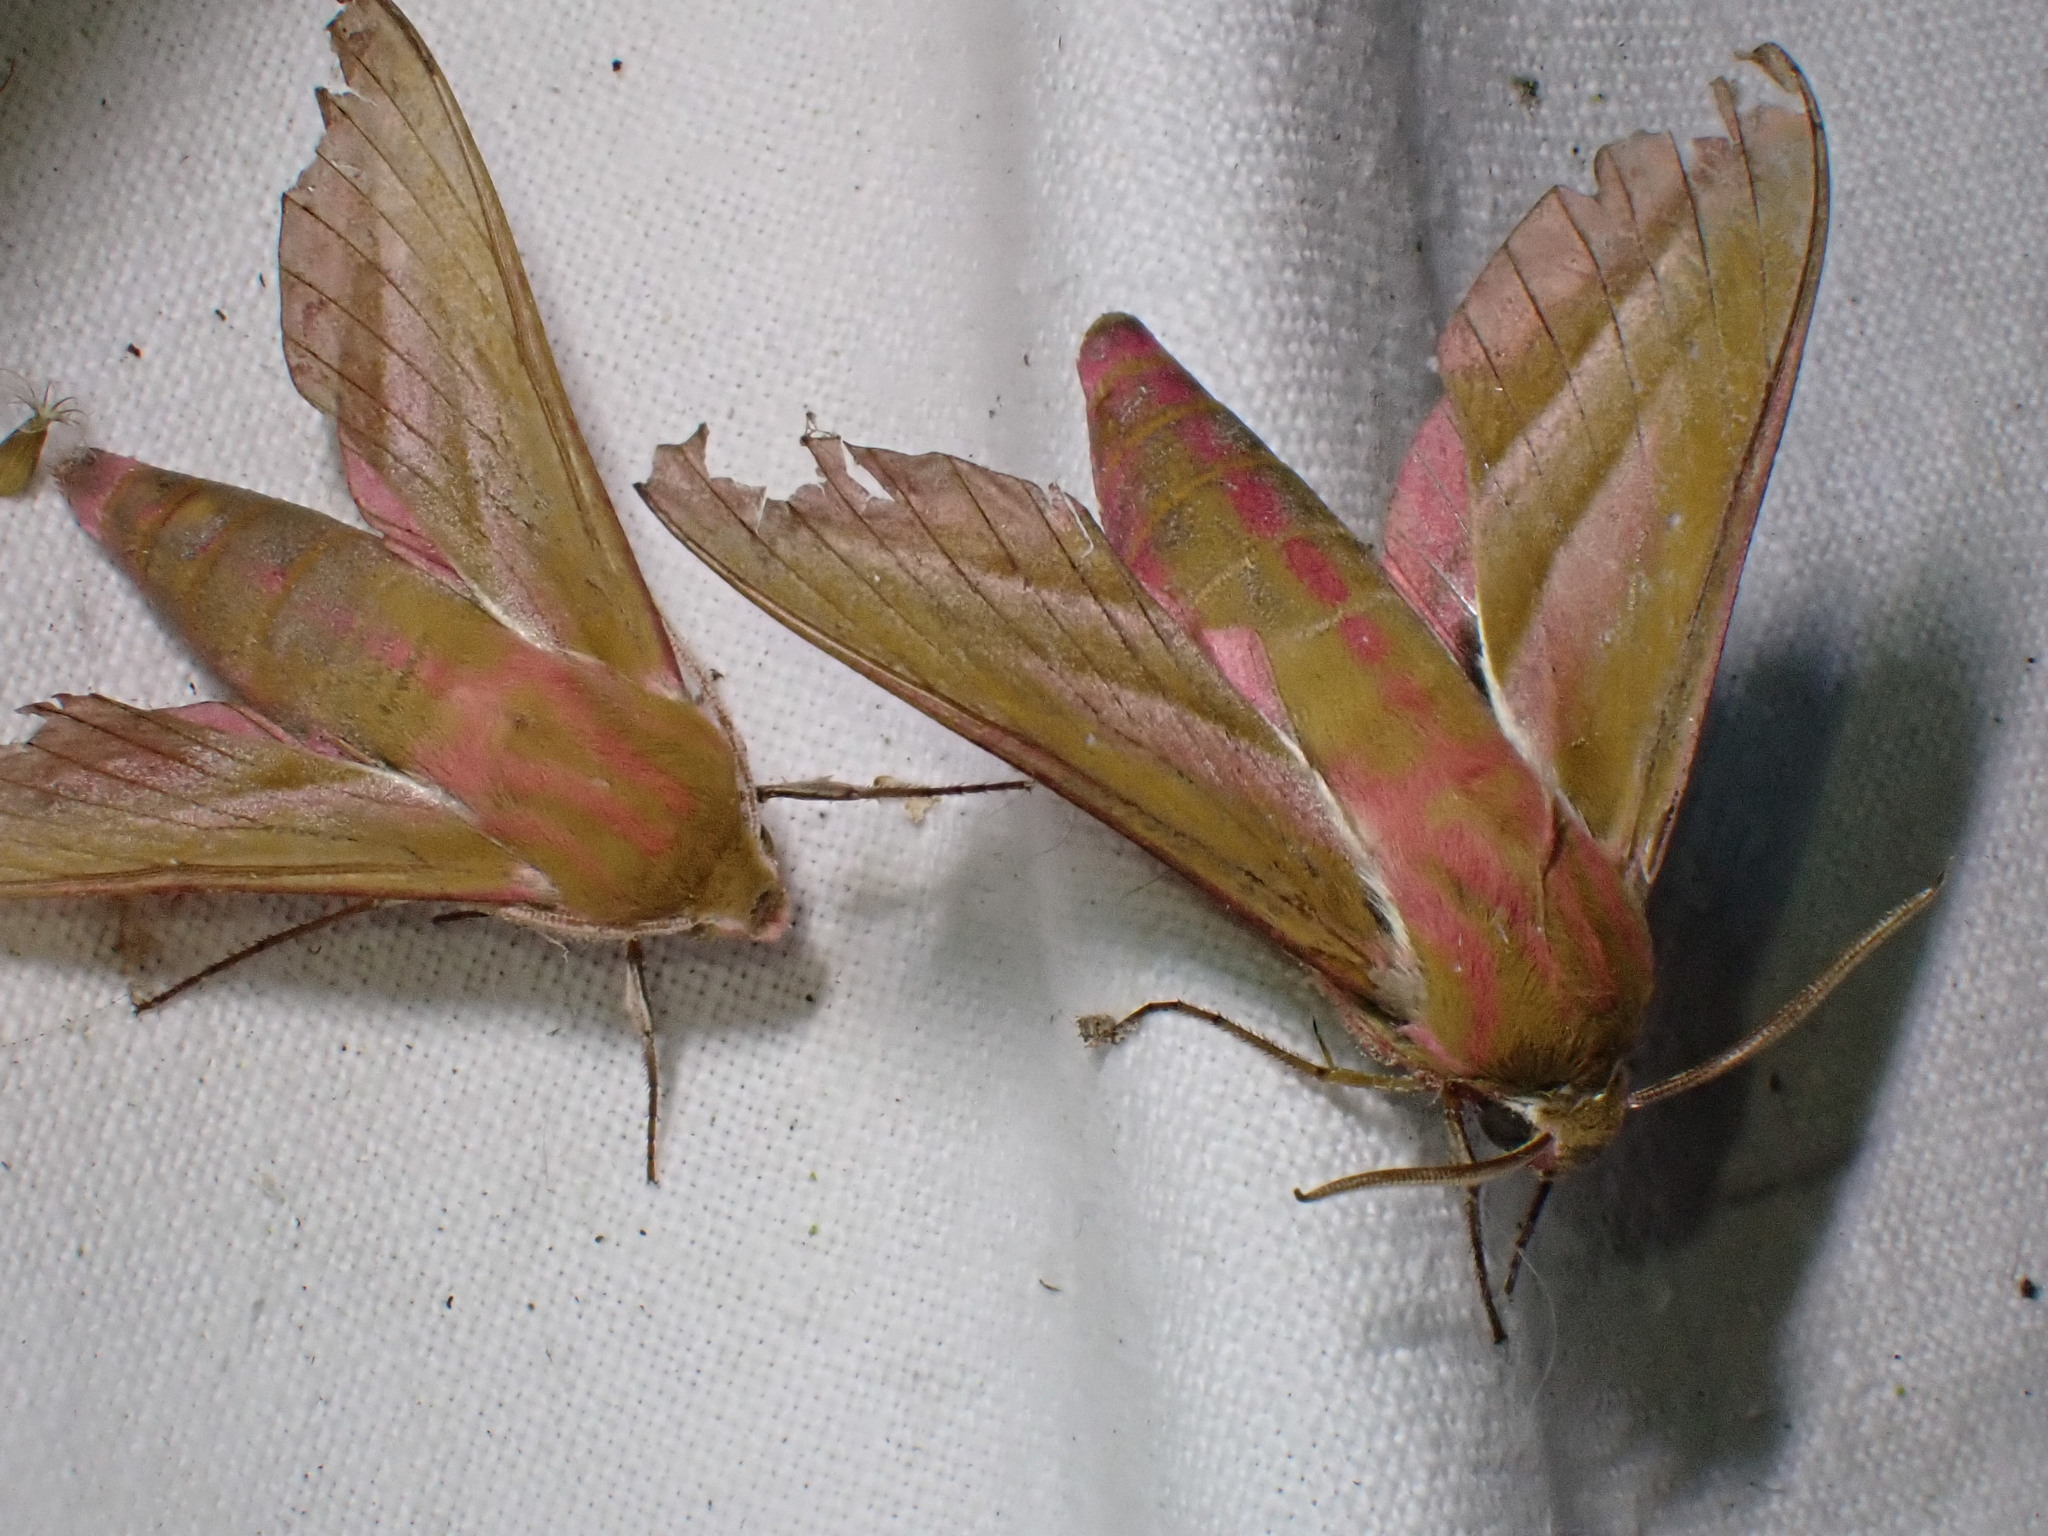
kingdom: Animalia
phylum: Arthropoda
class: Insecta
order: Lepidoptera
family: Sphingidae
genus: Deilephila
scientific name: Deilephila elpenor
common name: Elephant hawk-moth
